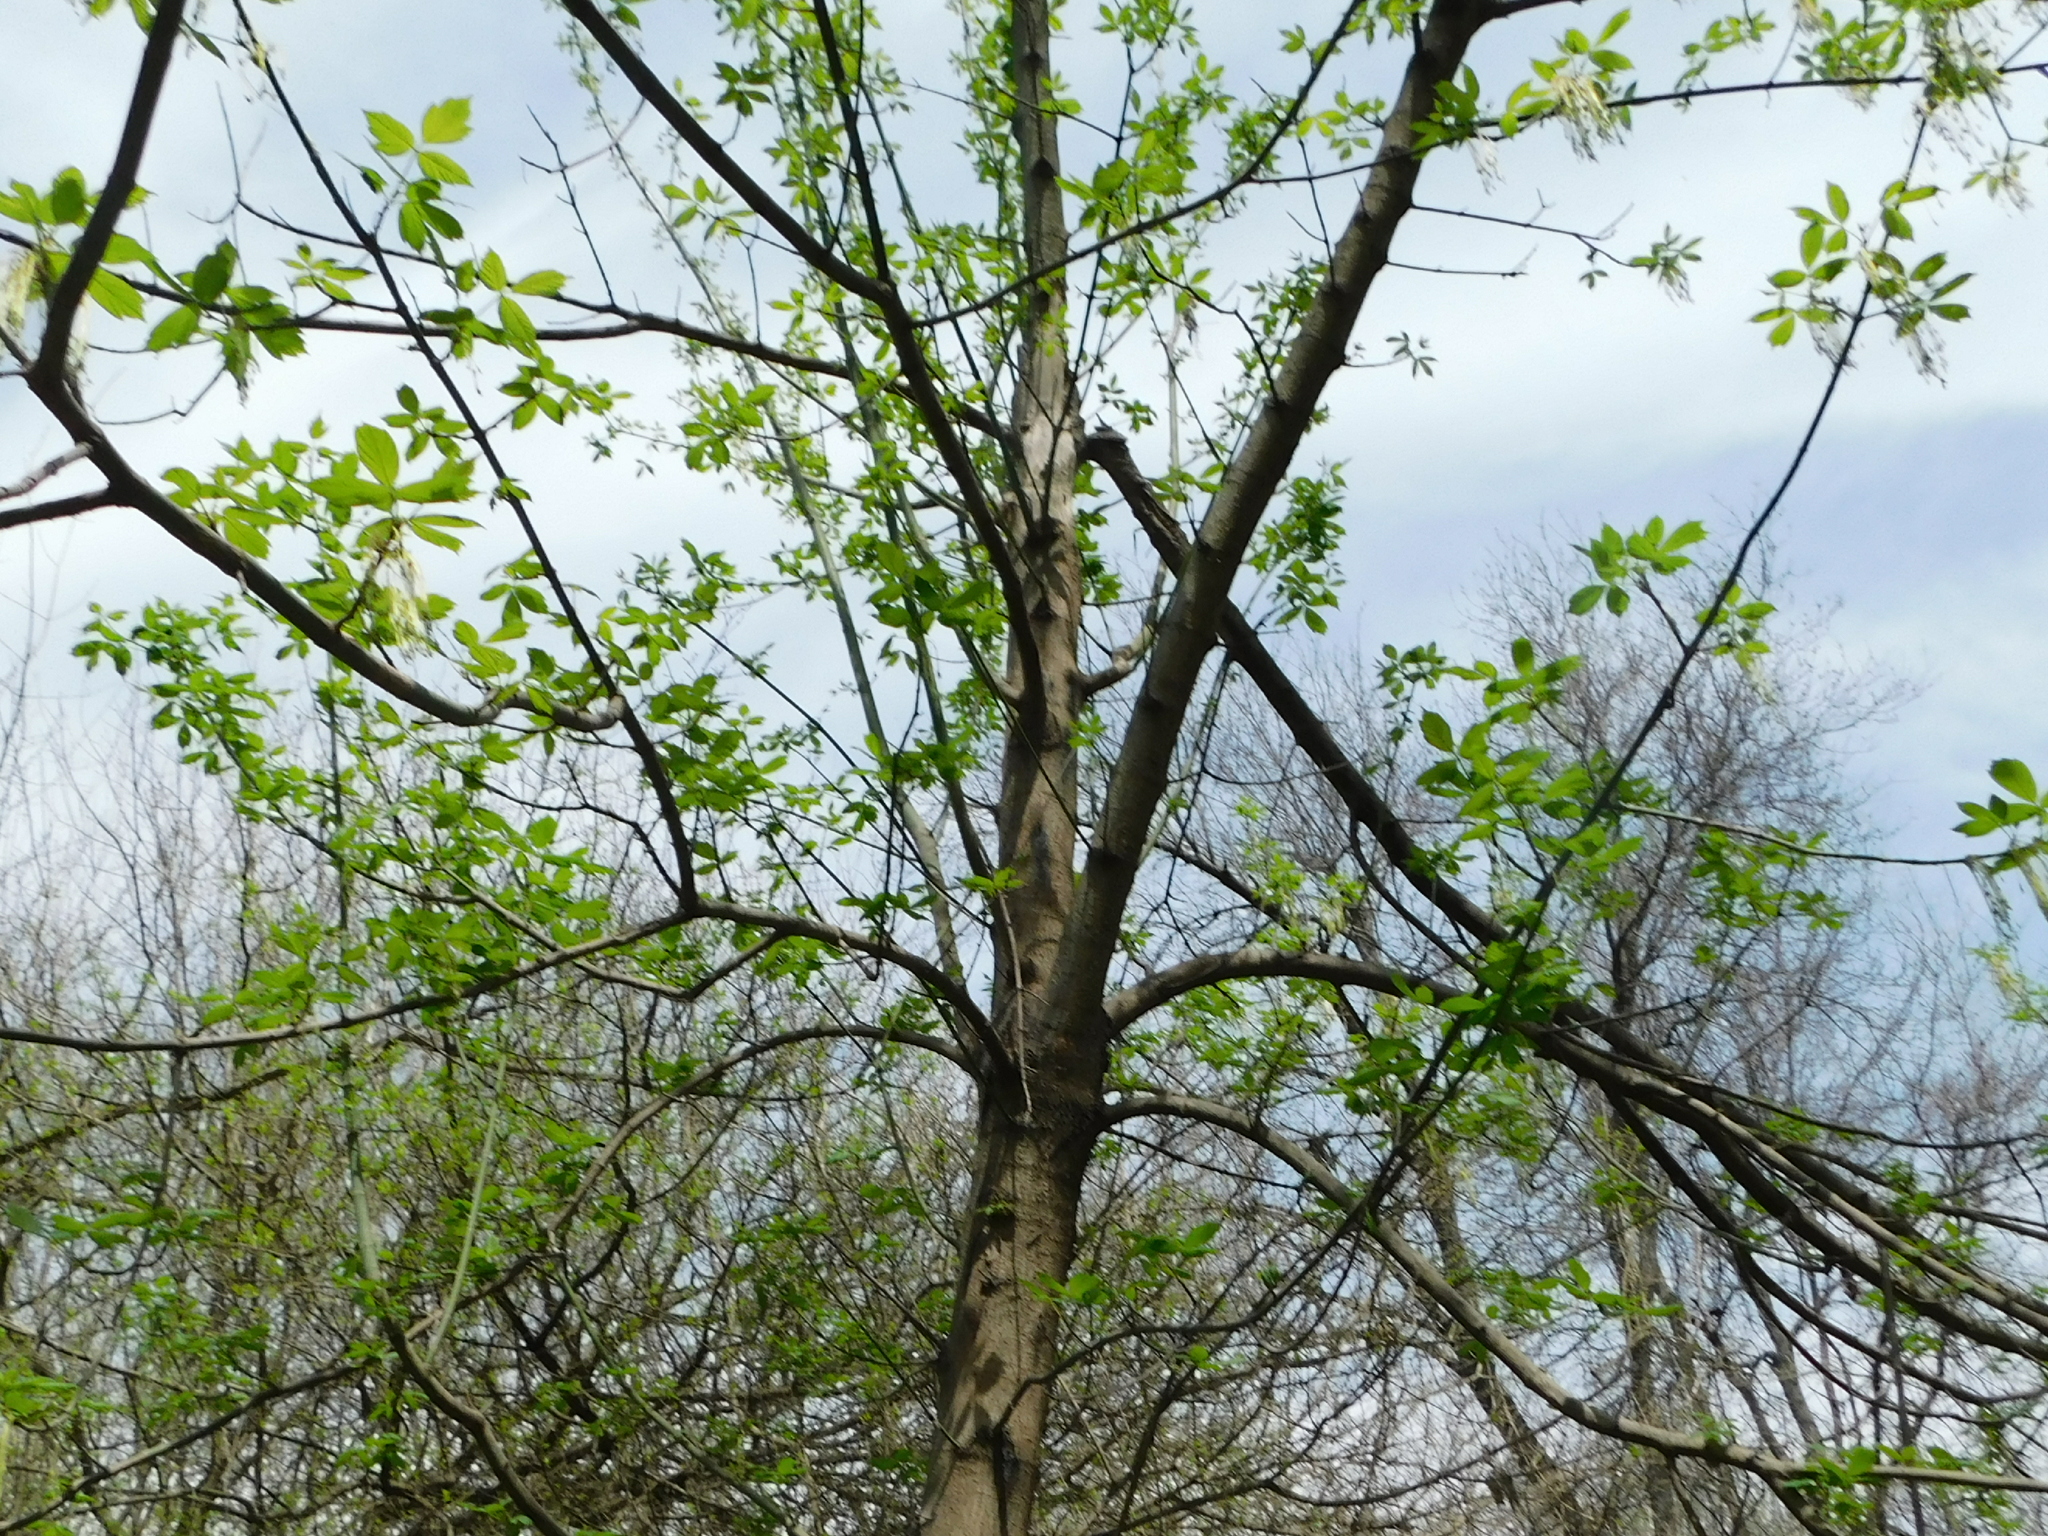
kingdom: Plantae
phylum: Tracheophyta
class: Magnoliopsida
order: Sapindales
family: Sapindaceae
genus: Acer
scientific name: Acer negundo
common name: Ashleaf maple
